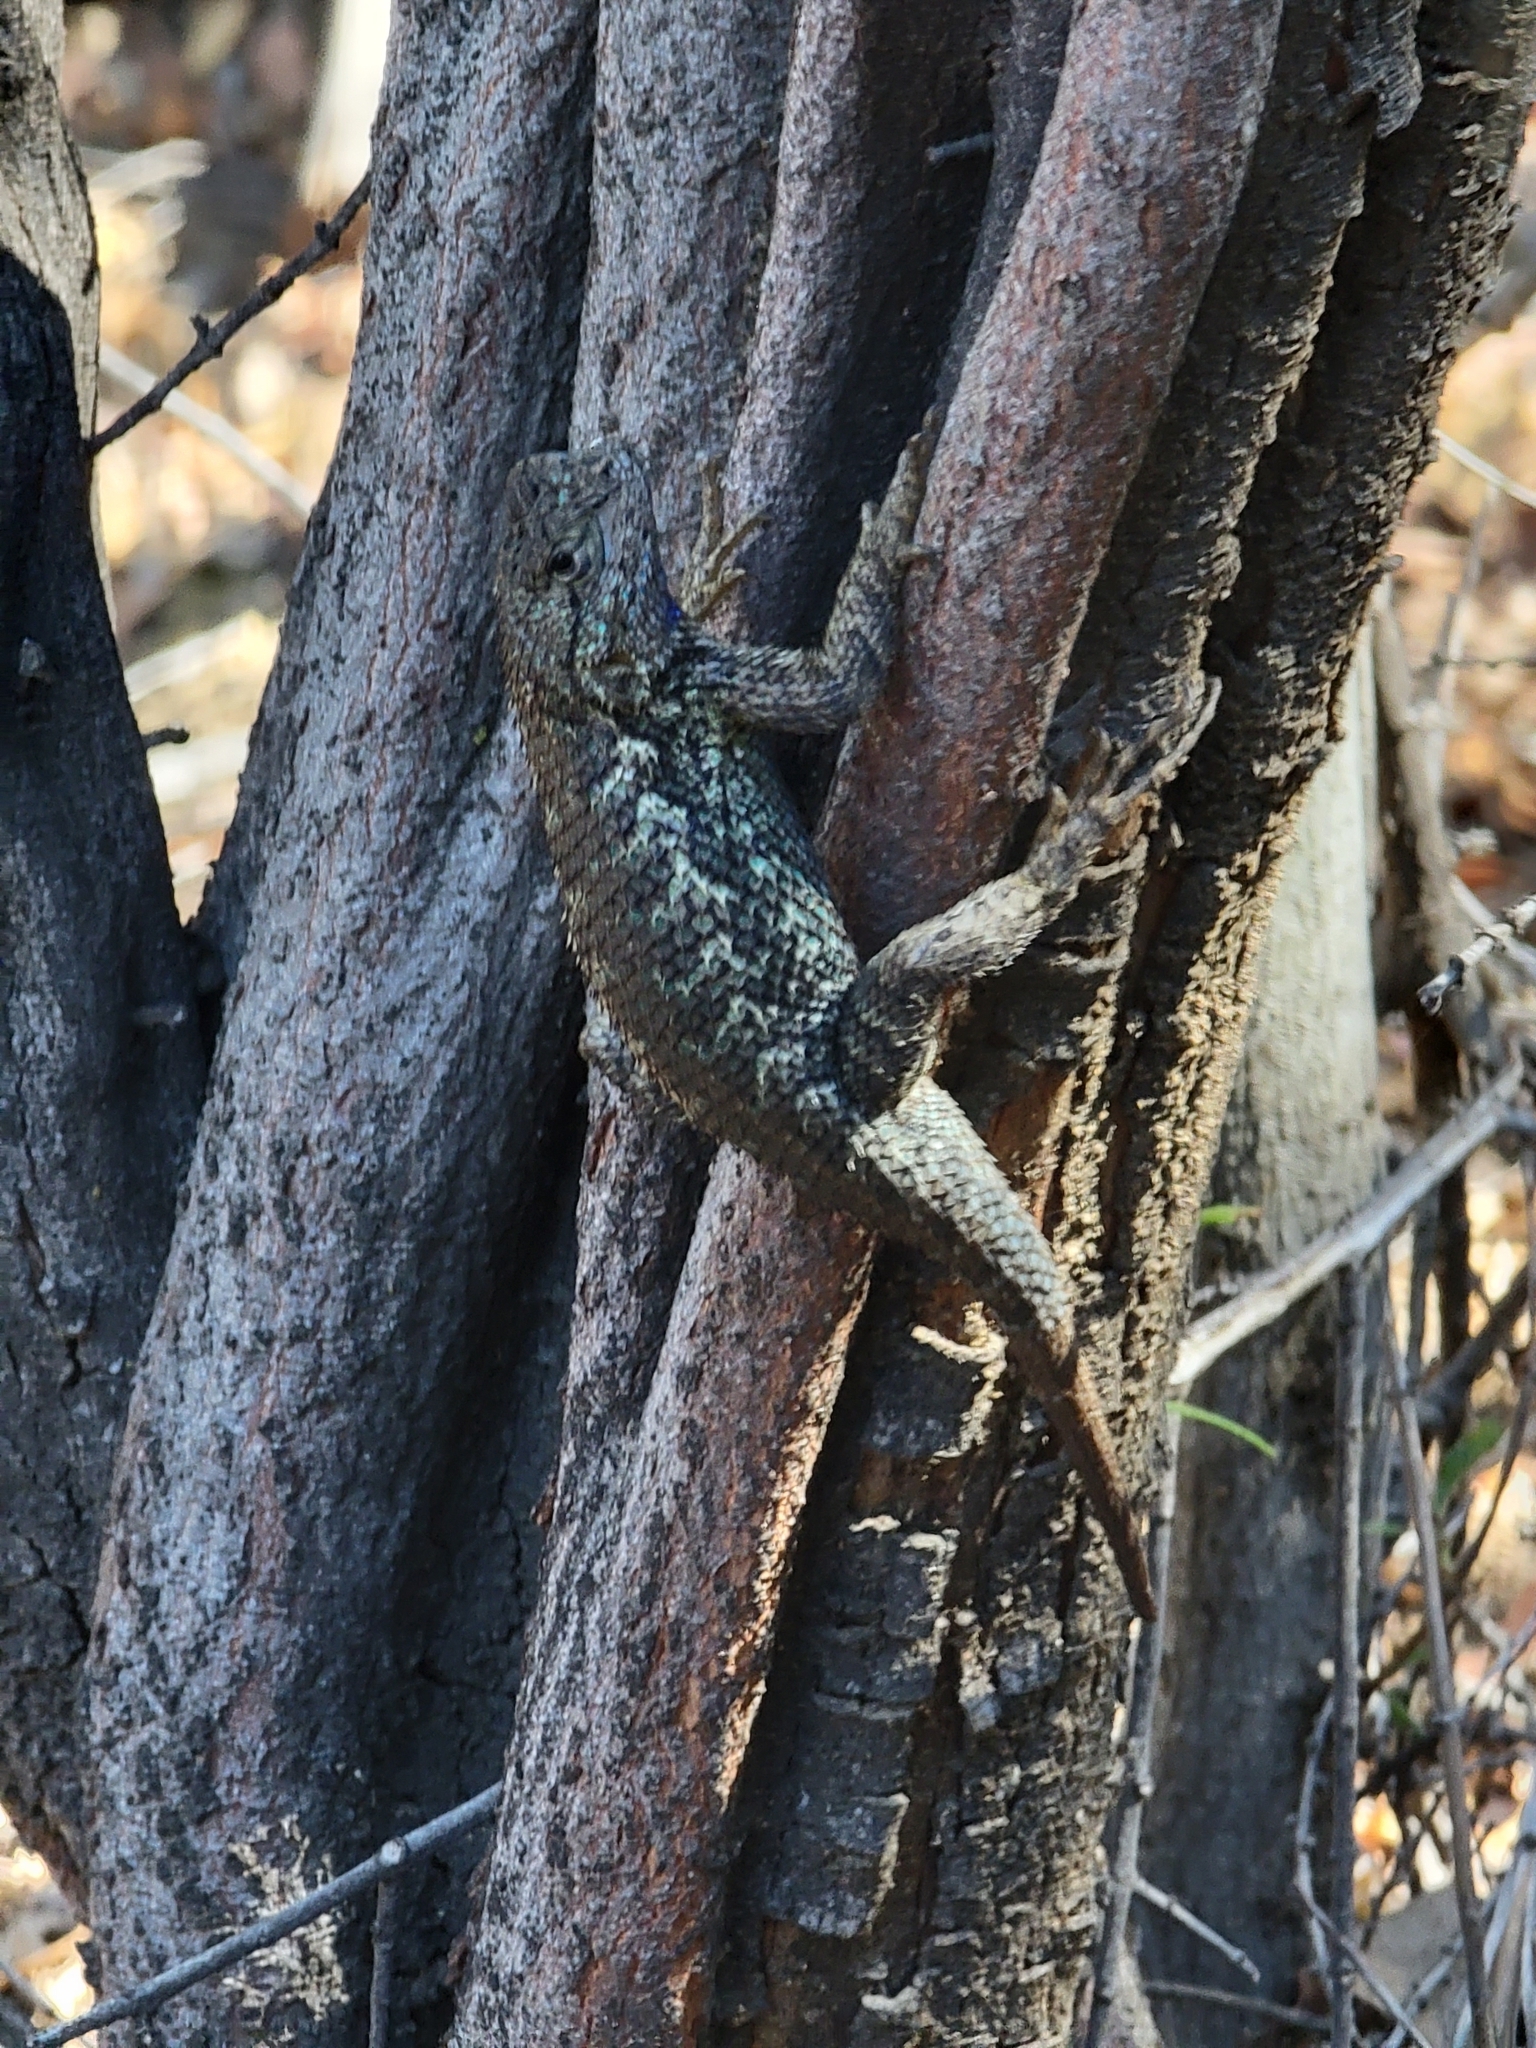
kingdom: Animalia
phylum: Chordata
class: Squamata
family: Phrynosomatidae
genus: Sceloporus
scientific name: Sceloporus occidentalis
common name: Western fence lizard
